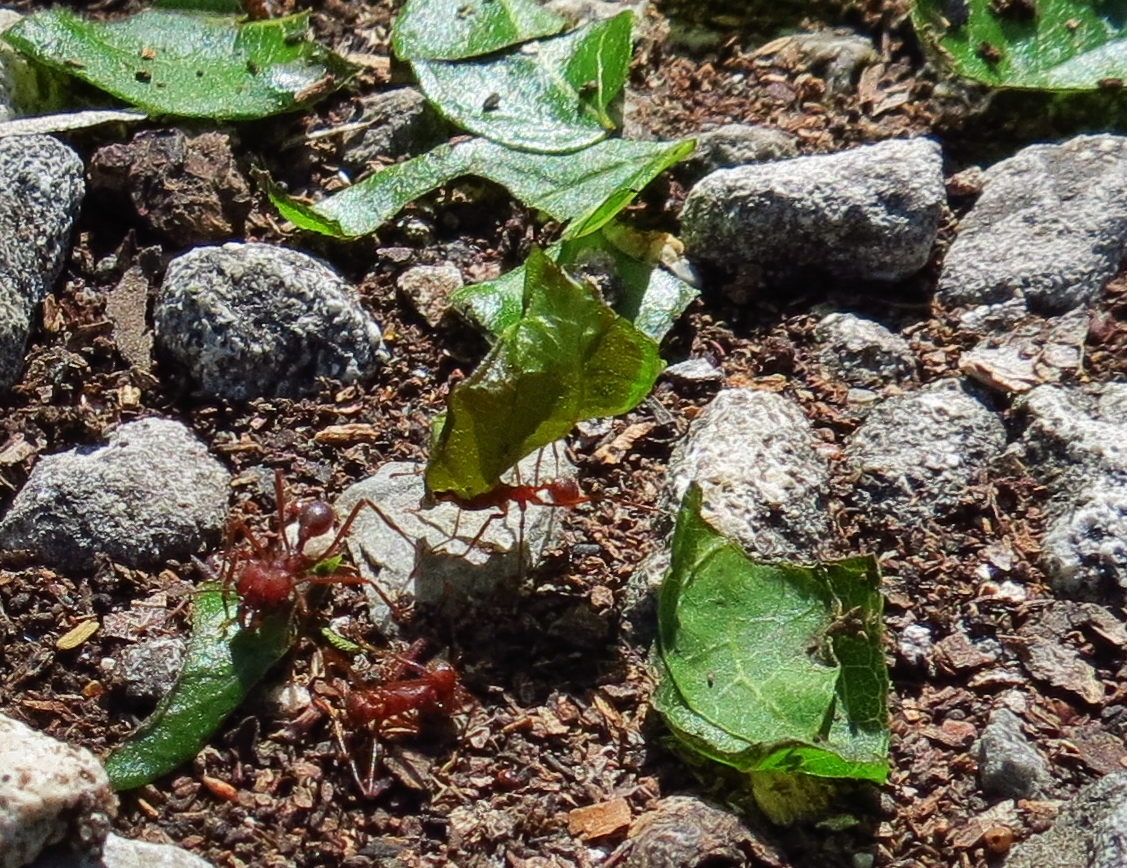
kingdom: Animalia
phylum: Arthropoda
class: Insecta
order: Hymenoptera
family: Formicidae
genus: Atta
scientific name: Atta texana
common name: Texas leafcutting ant
